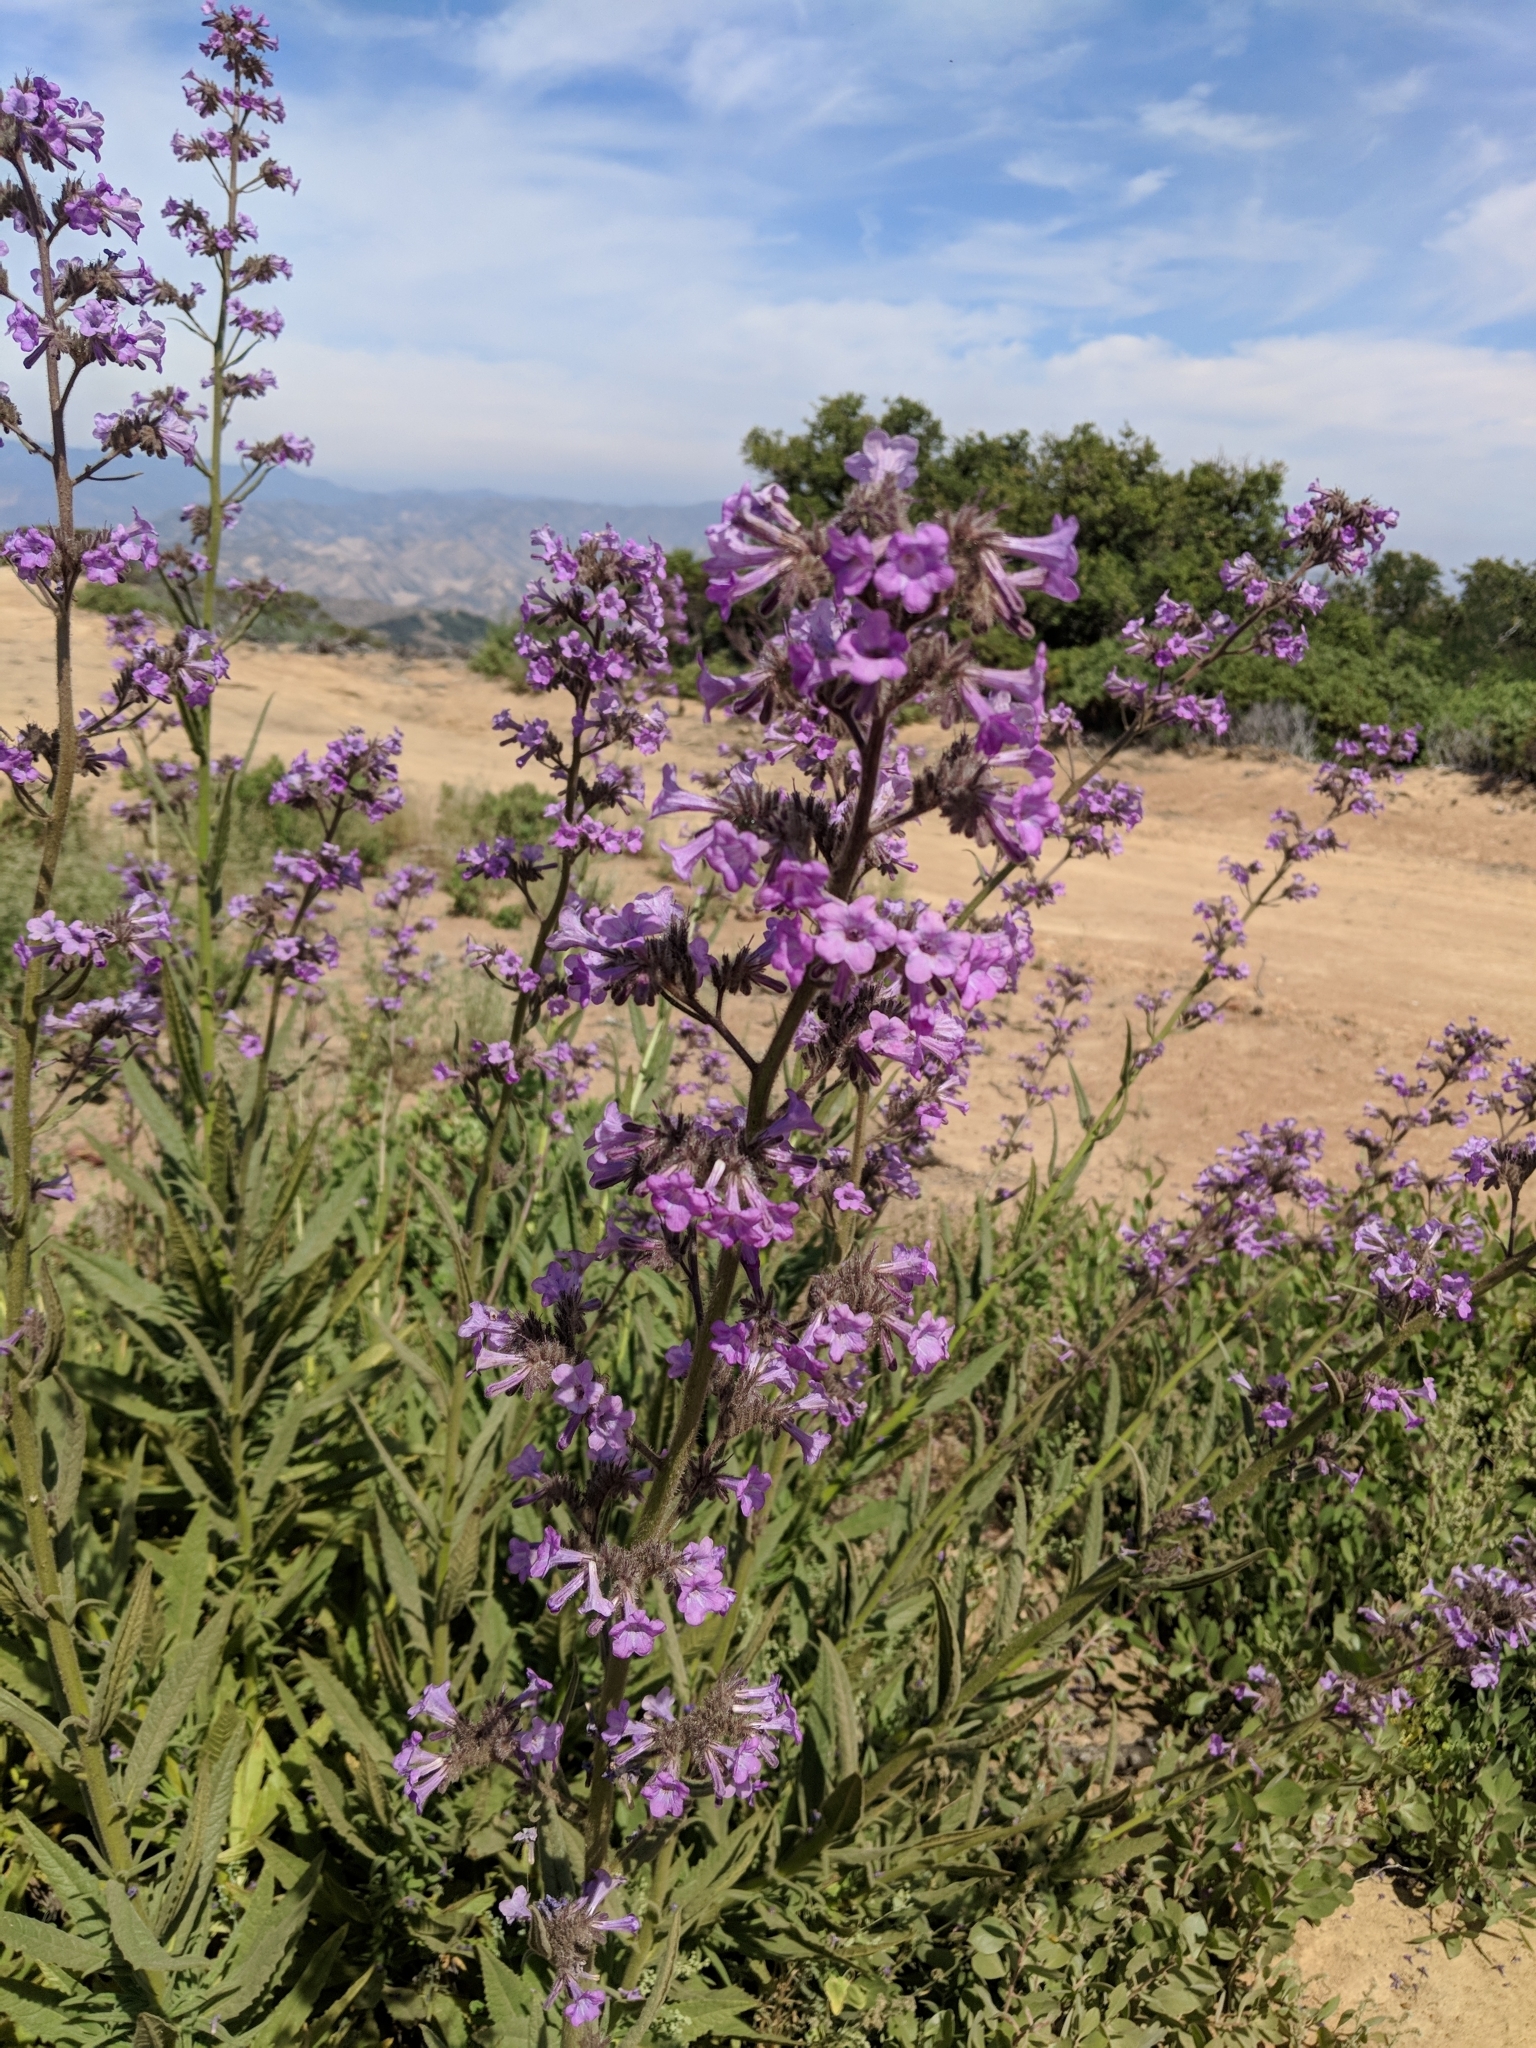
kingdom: Plantae
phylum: Tracheophyta
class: Magnoliopsida
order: Boraginales
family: Namaceae
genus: Turricula
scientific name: Turricula parryi
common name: Poodle-dog-bush
